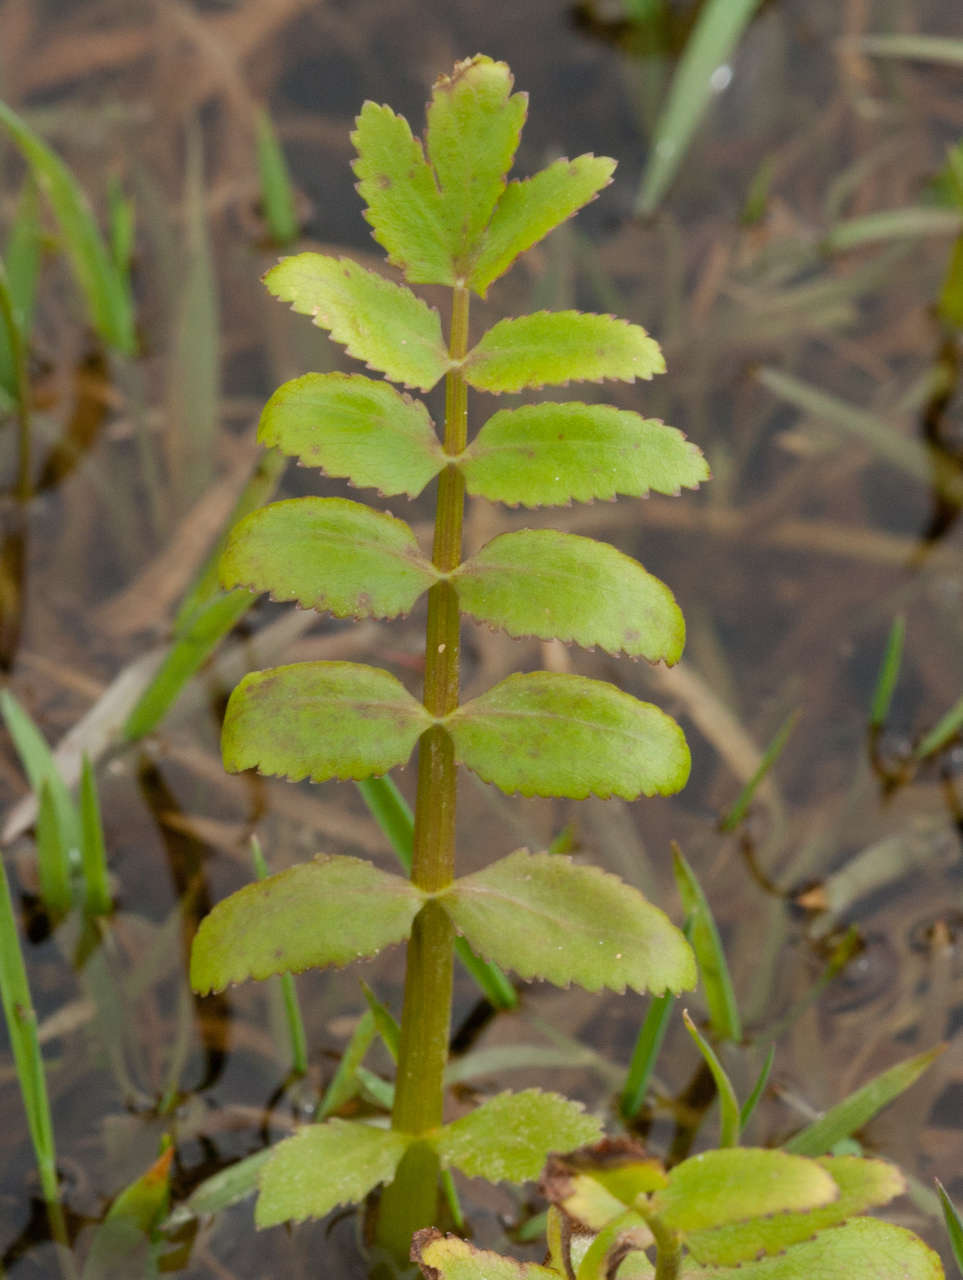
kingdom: Plantae
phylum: Tracheophyta
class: Magnoliopsida
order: Apiales
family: Apiaceae
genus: Berula
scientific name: Berula erecta
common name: Lesser water-parsnip
